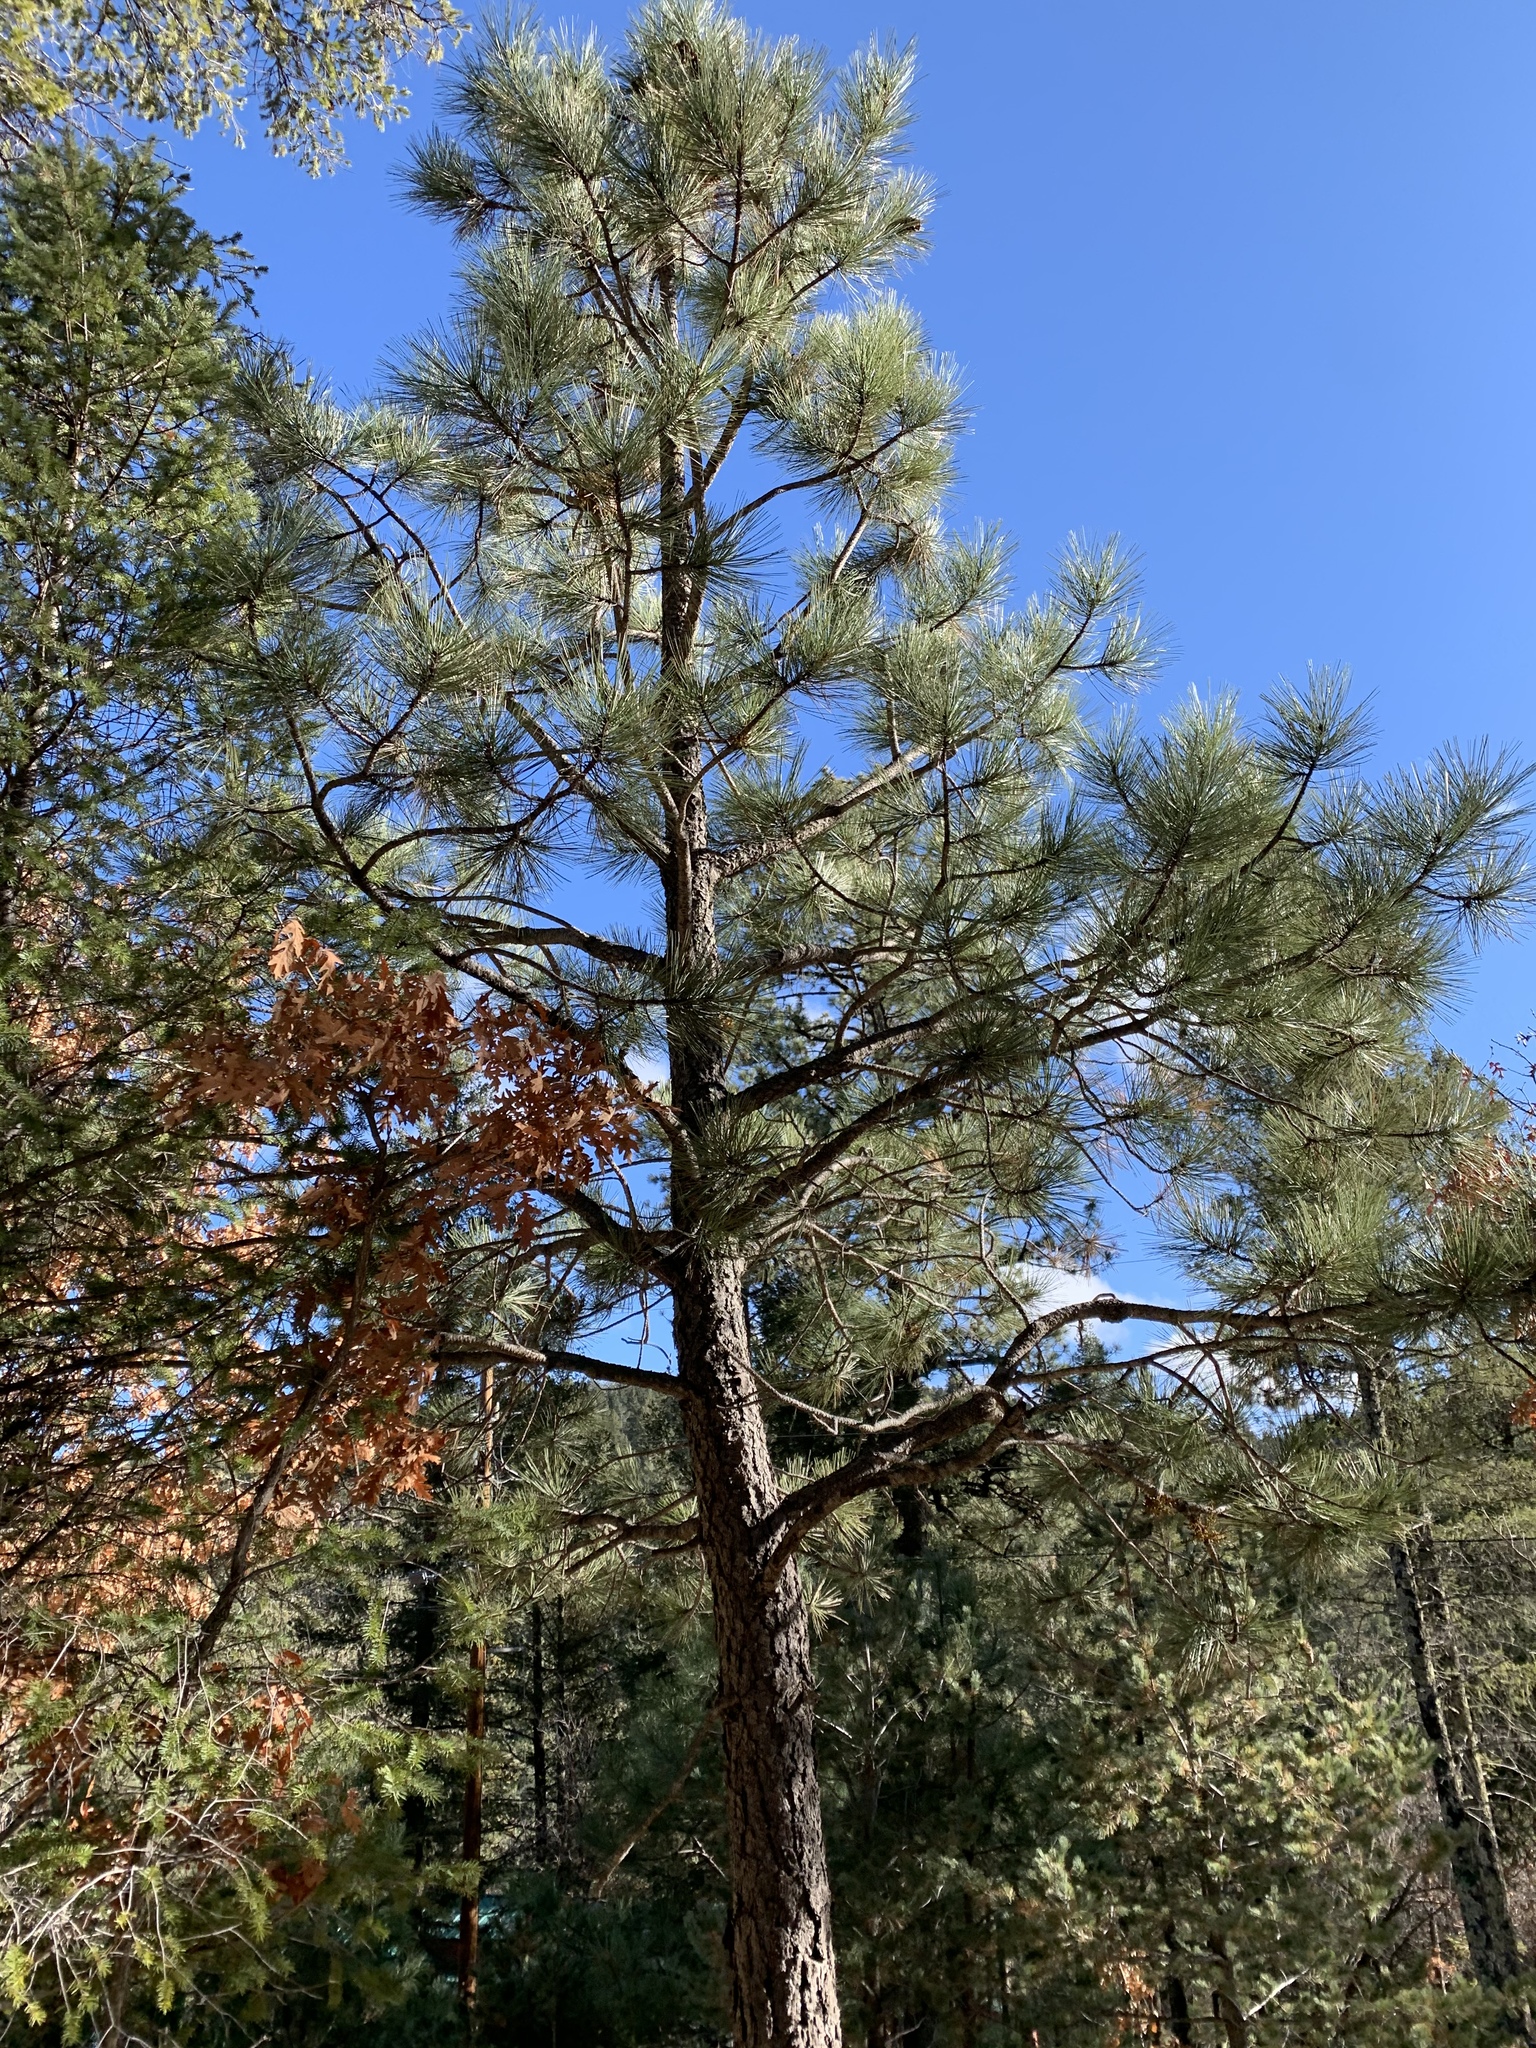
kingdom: Plantae
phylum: Tracheophyta
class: Pinopsida
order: Pinales
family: Pinaceae
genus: Pinus
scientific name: Pinus ponderosa
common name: Western yellow-pine
